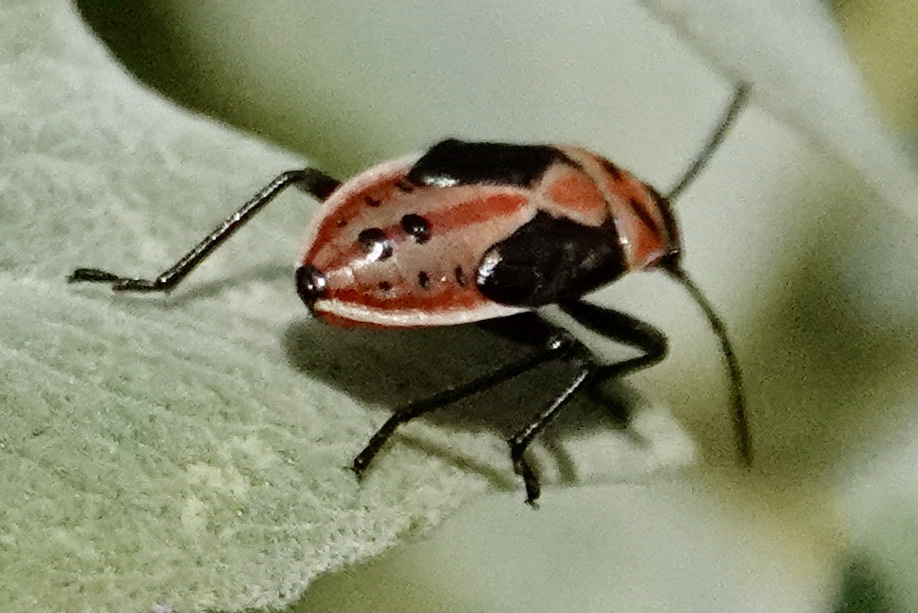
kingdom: Animalia
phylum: Arthropoda
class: Insecta
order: Hemiptera
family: Lygaeidae
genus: Lygaeus
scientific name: Lygaeus kalmii
